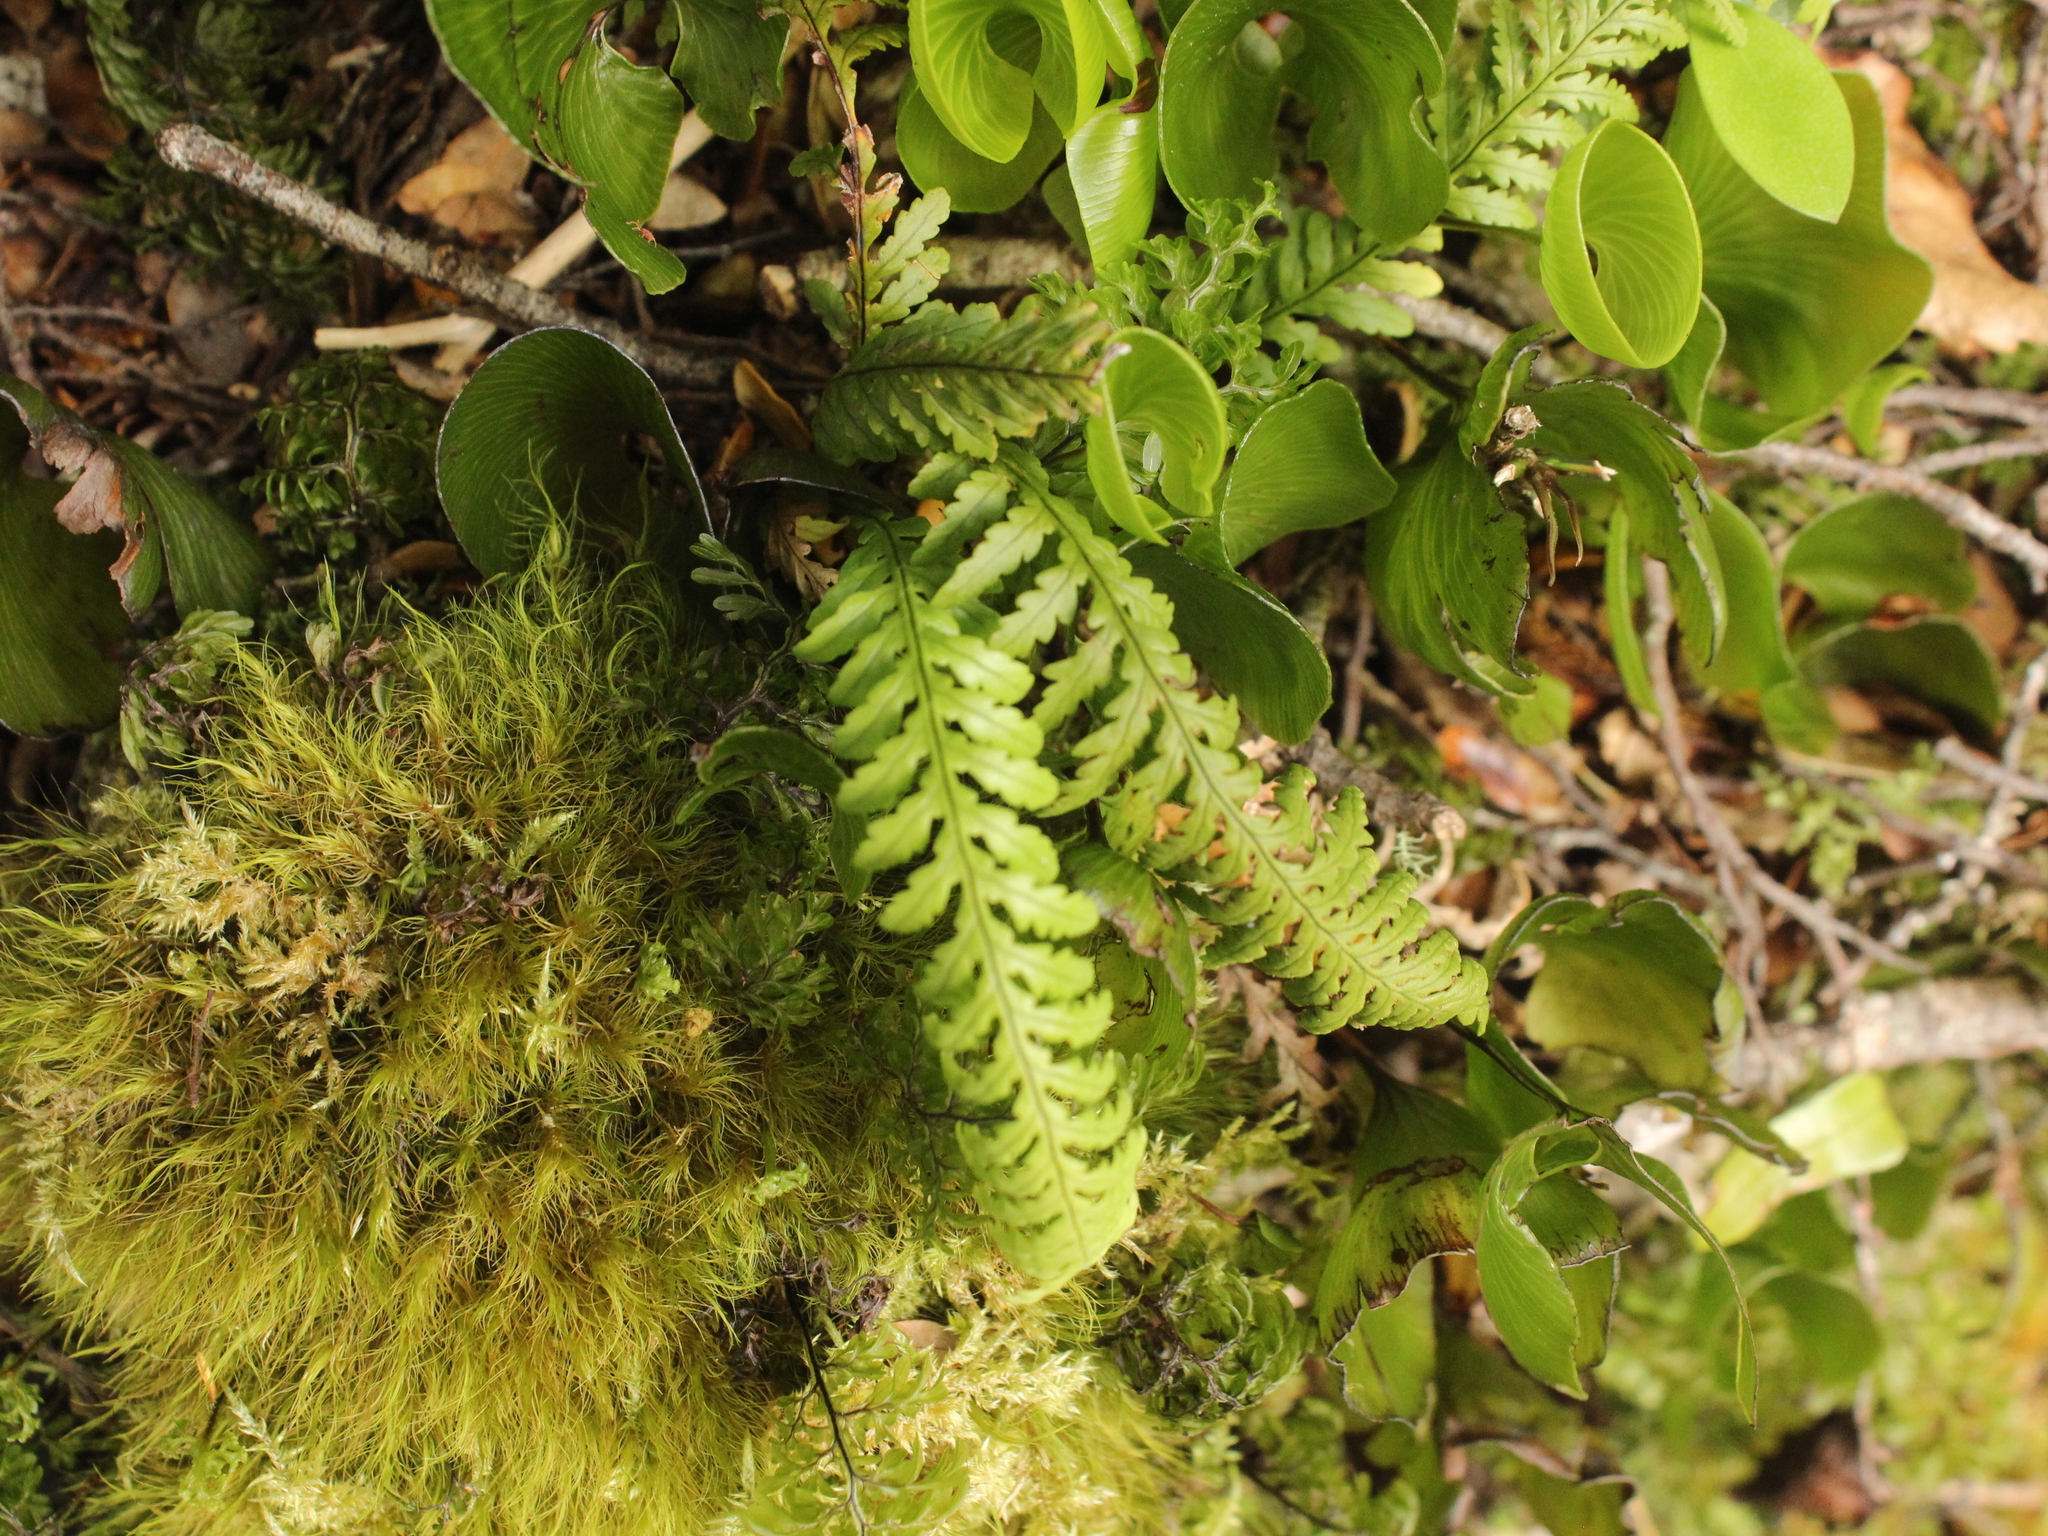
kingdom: Plantae
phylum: Tracheophyta
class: Polypodiopsida
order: Polypodiales
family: Polypodiaceae
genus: Notogrammitis
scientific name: Notogrammitis heterophylla
